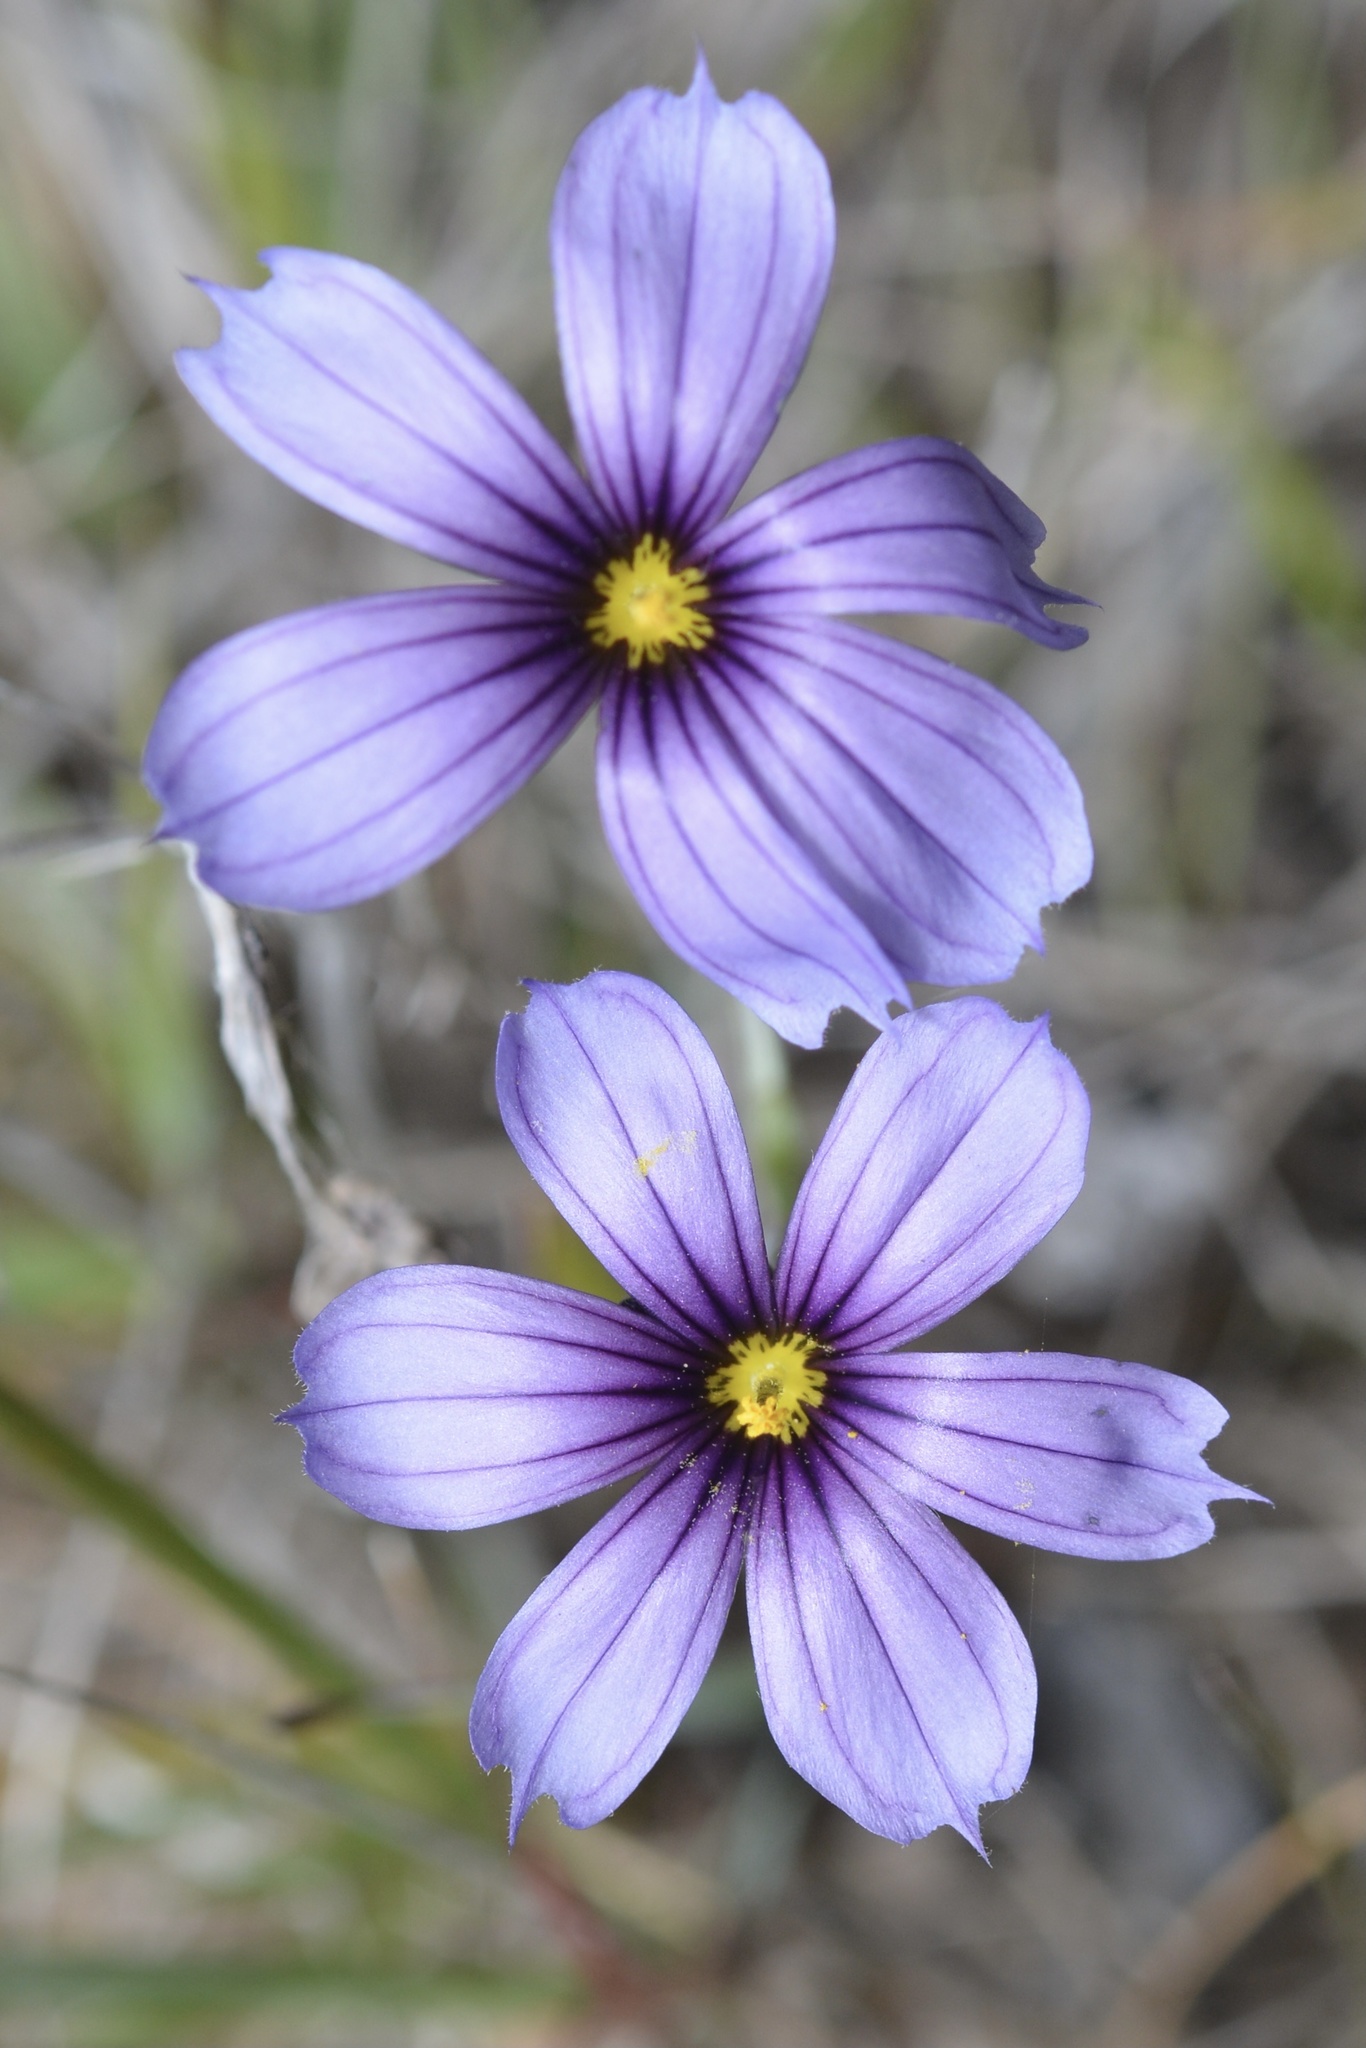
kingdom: Plantae
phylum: Tracheophyta
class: Liliopsida
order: Asparagales
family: Iridaceae
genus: Sisyrinchium
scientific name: Sisyrinchium bellum
